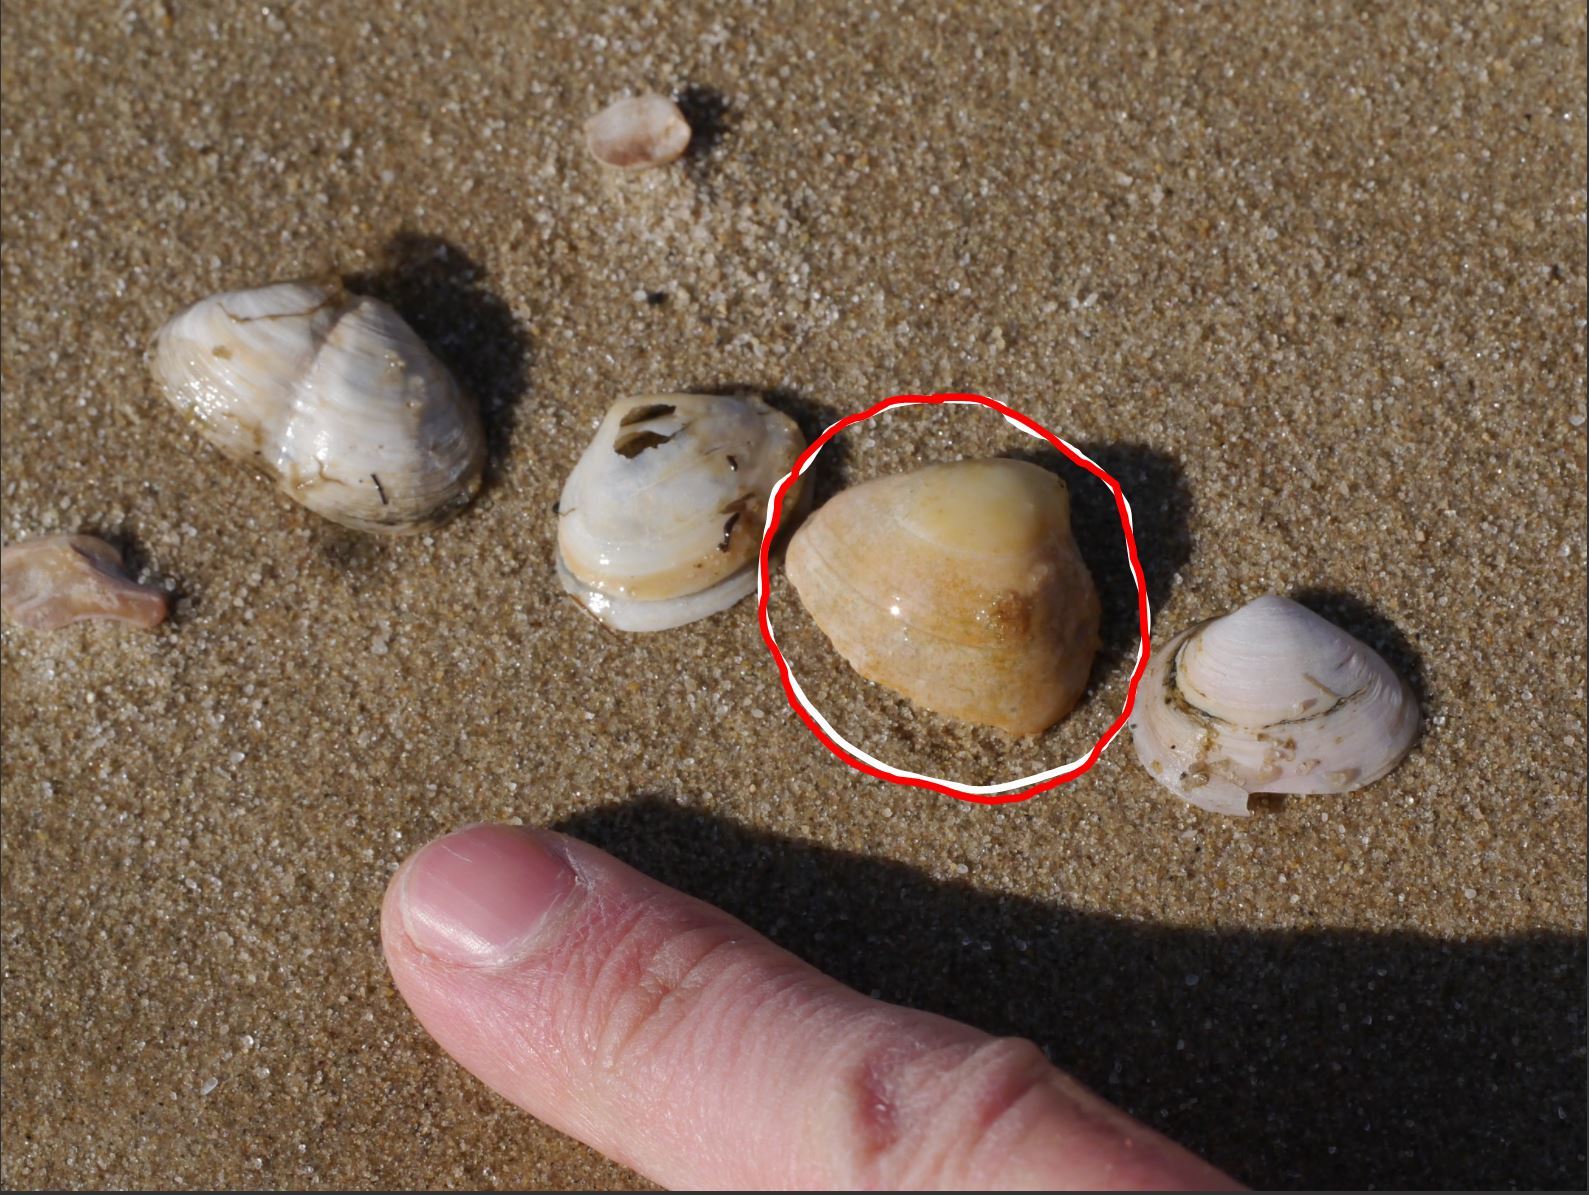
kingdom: Animalia
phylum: Mollusca
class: Bivalvia
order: Venerida
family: Mactridae
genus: Rangia
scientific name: Rangia cuneata
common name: Atlantic rangia
